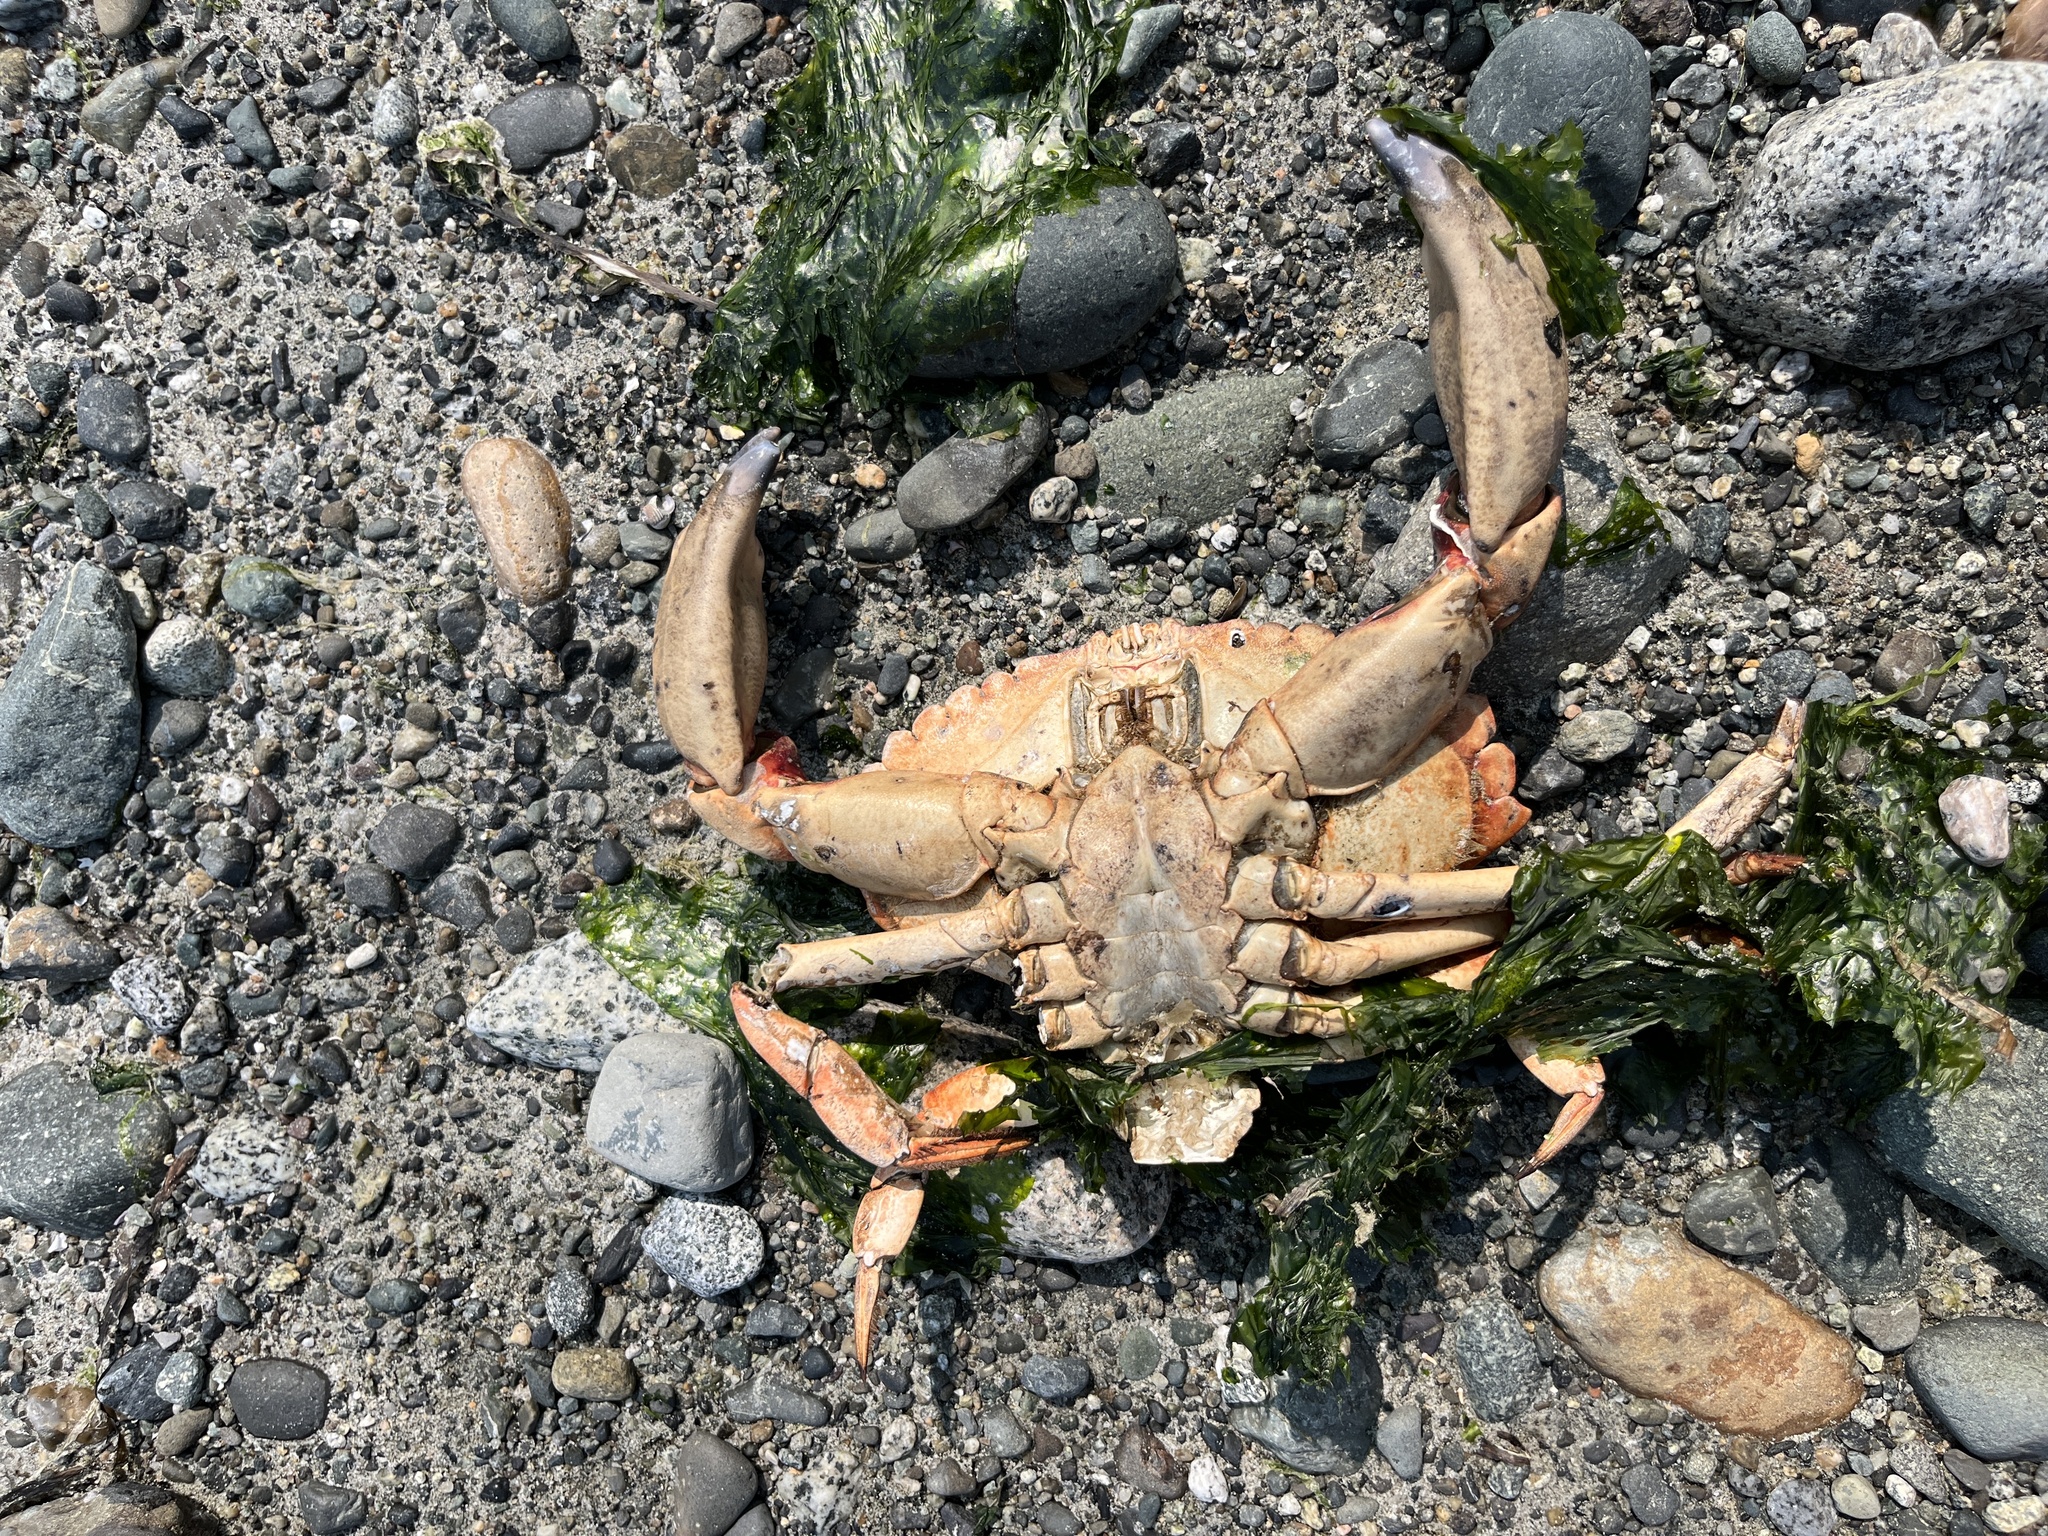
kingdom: Animalia
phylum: Arthropoda
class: Malacostraca
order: Decapoda
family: Cancridae
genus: Cancer
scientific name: Cancer productus
